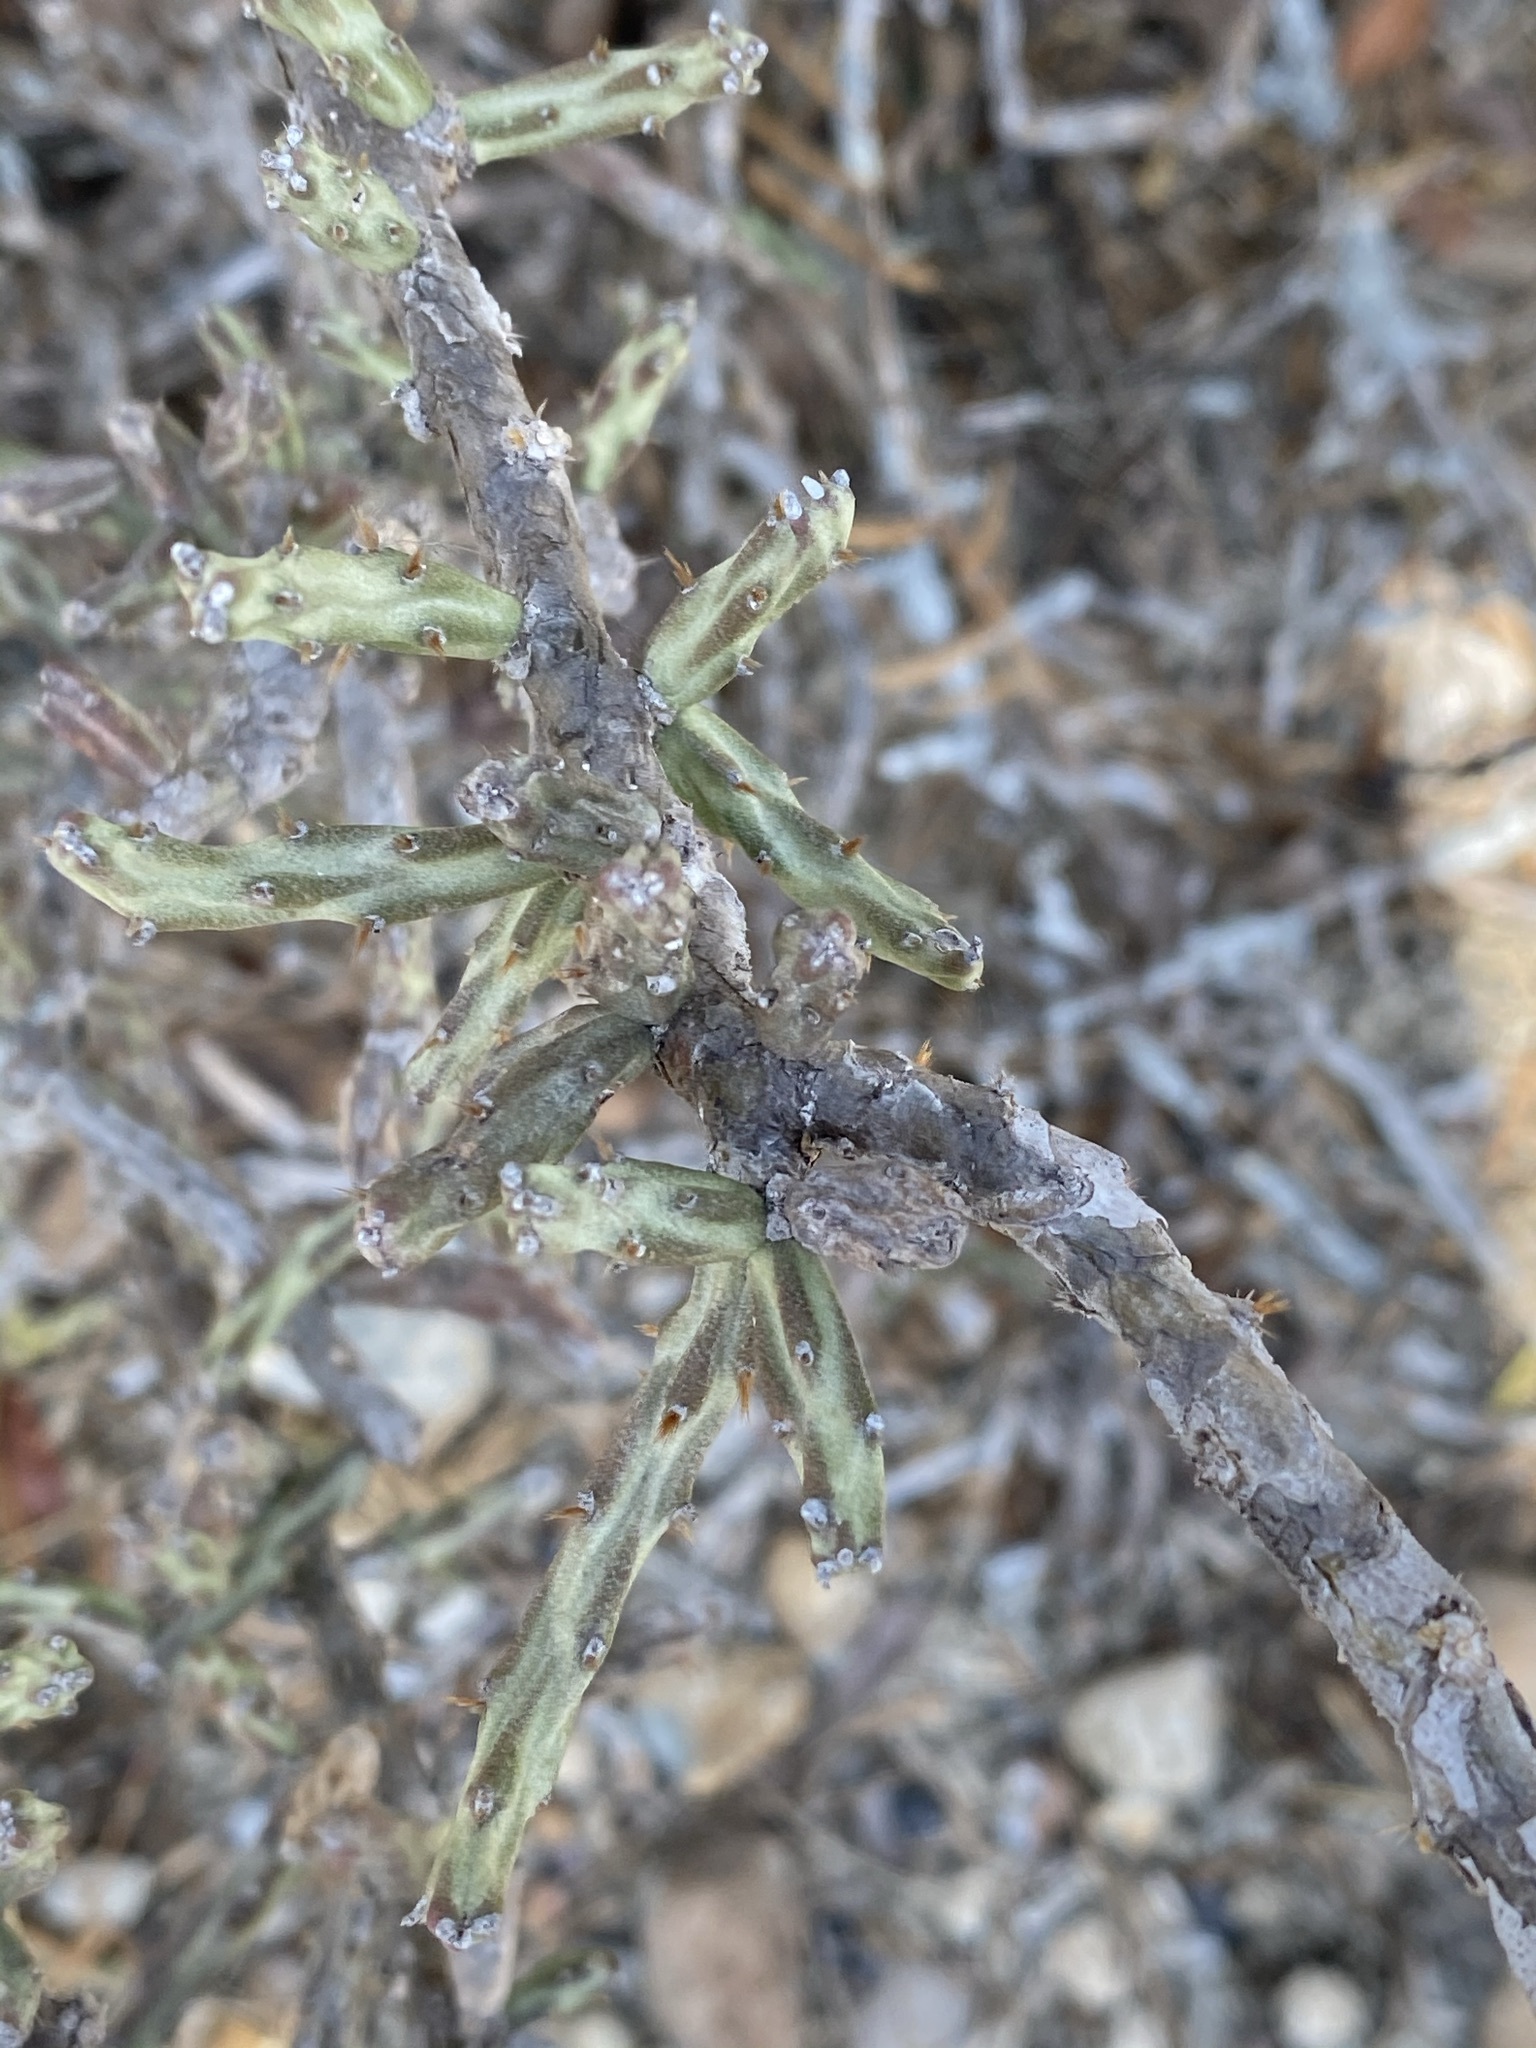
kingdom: Plantae
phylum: Tracheophyta
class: Magnoliopsida
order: Caryophyllales
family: Cactaceae
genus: Cylindropuntia
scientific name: Cylindropuntia leptocaulis
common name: Christmas cactus
